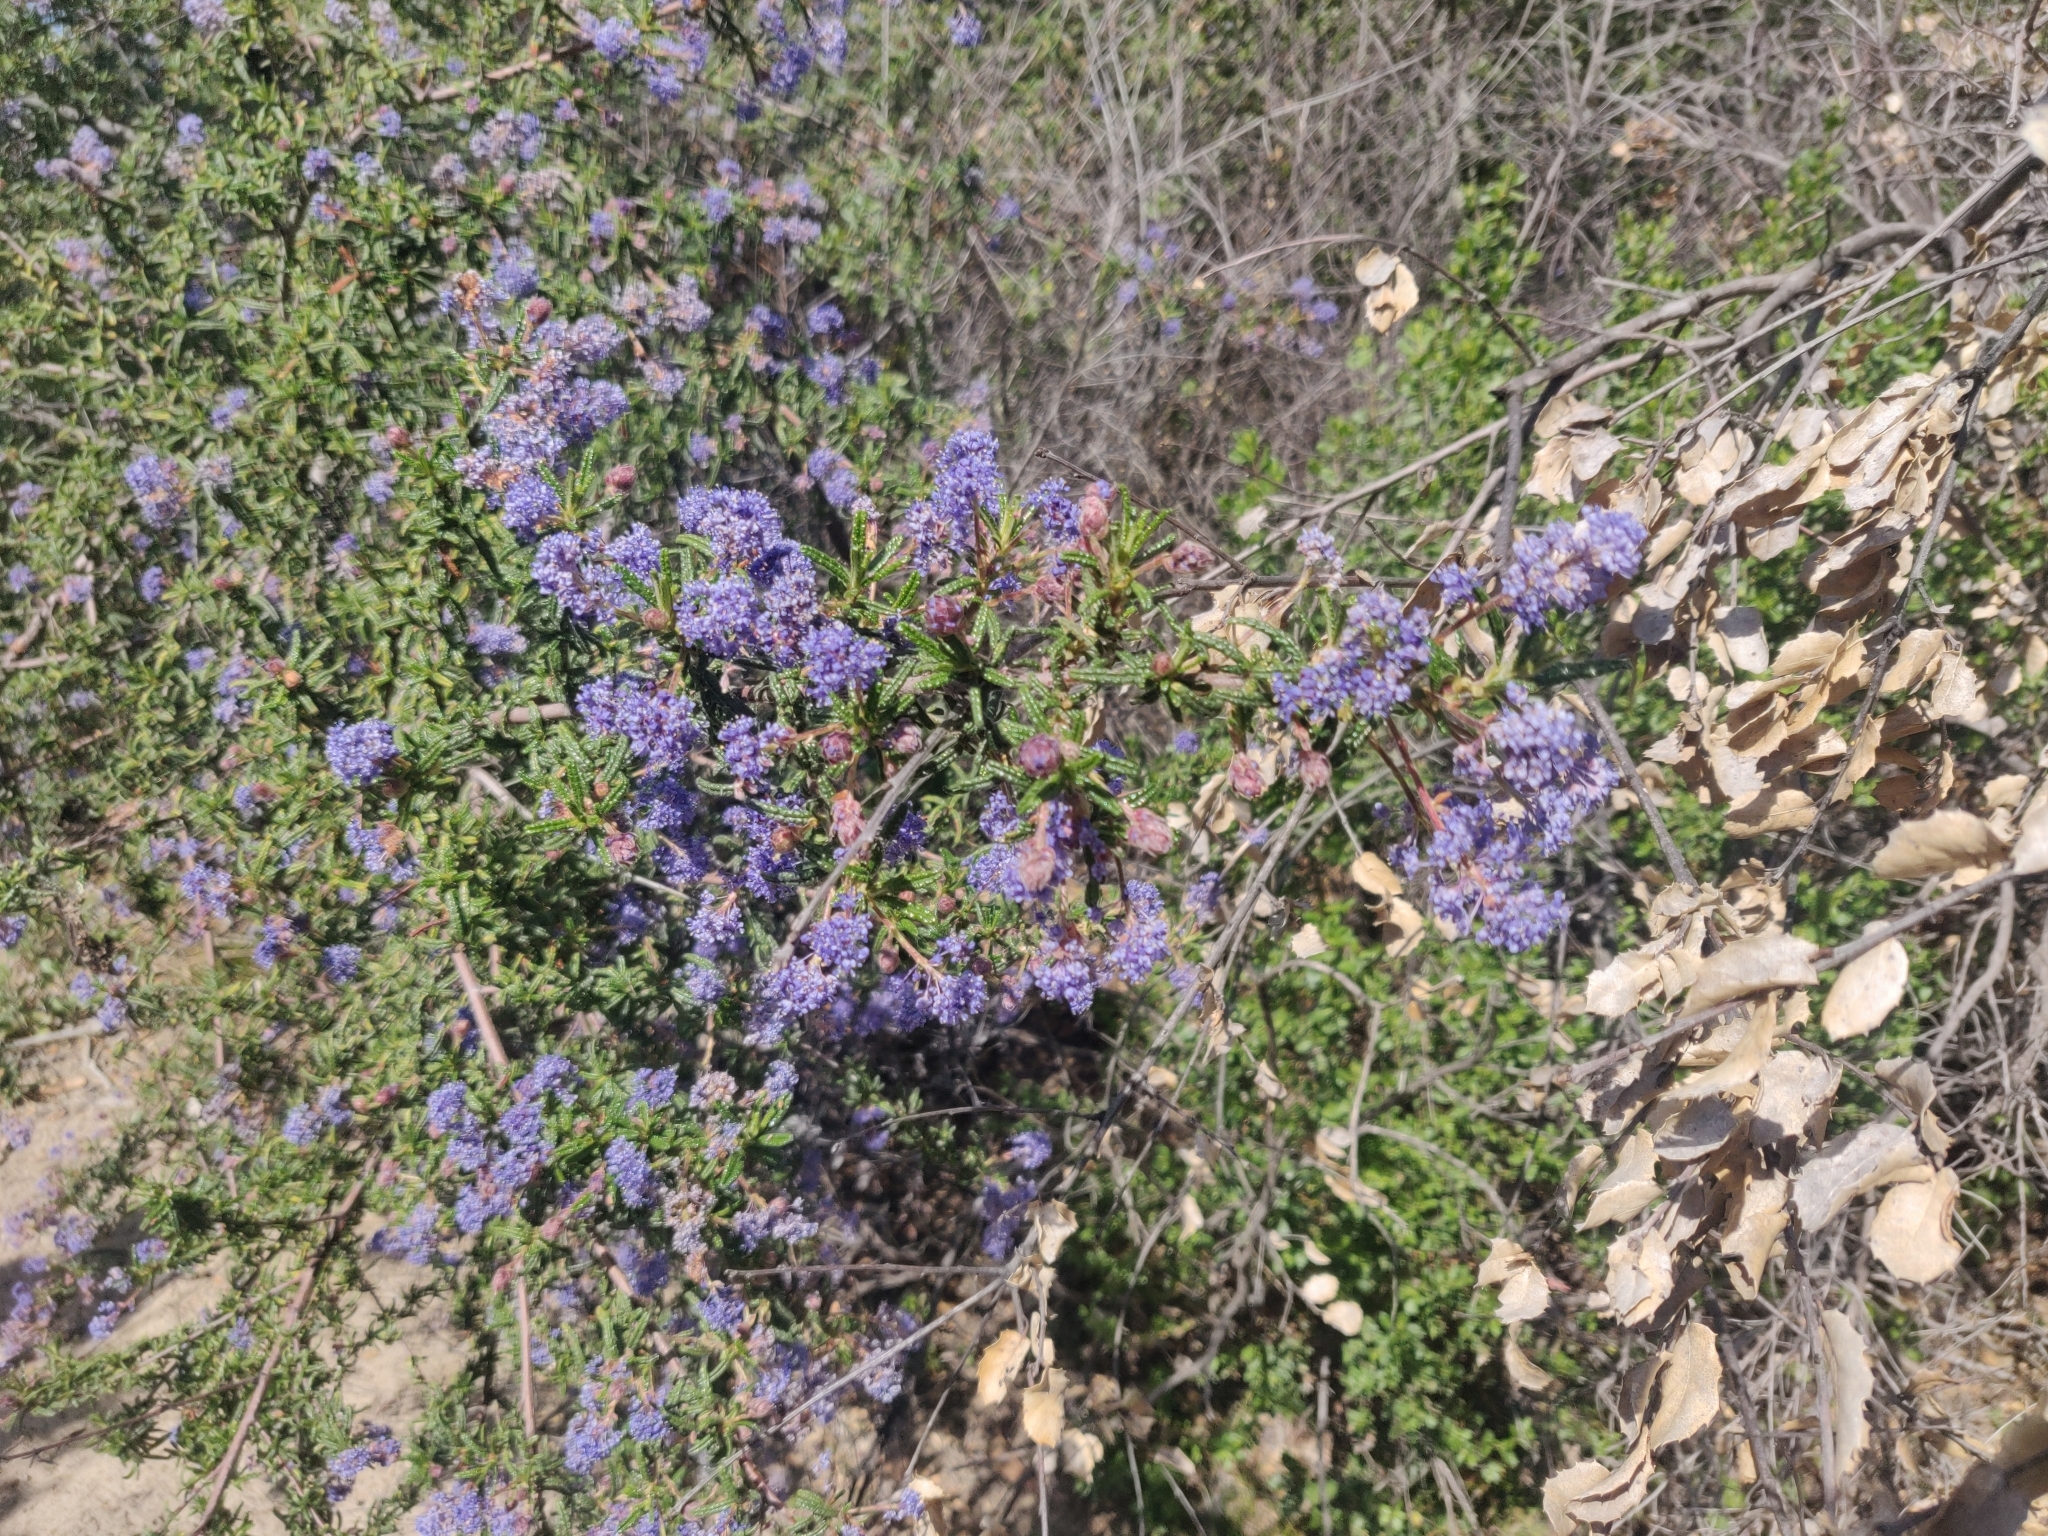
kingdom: Plantae
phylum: Tracheophyta
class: Magnoliopsida
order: Rosales
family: Rhamnaceae
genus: Ceanothus
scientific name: Ceanothus papillosus
